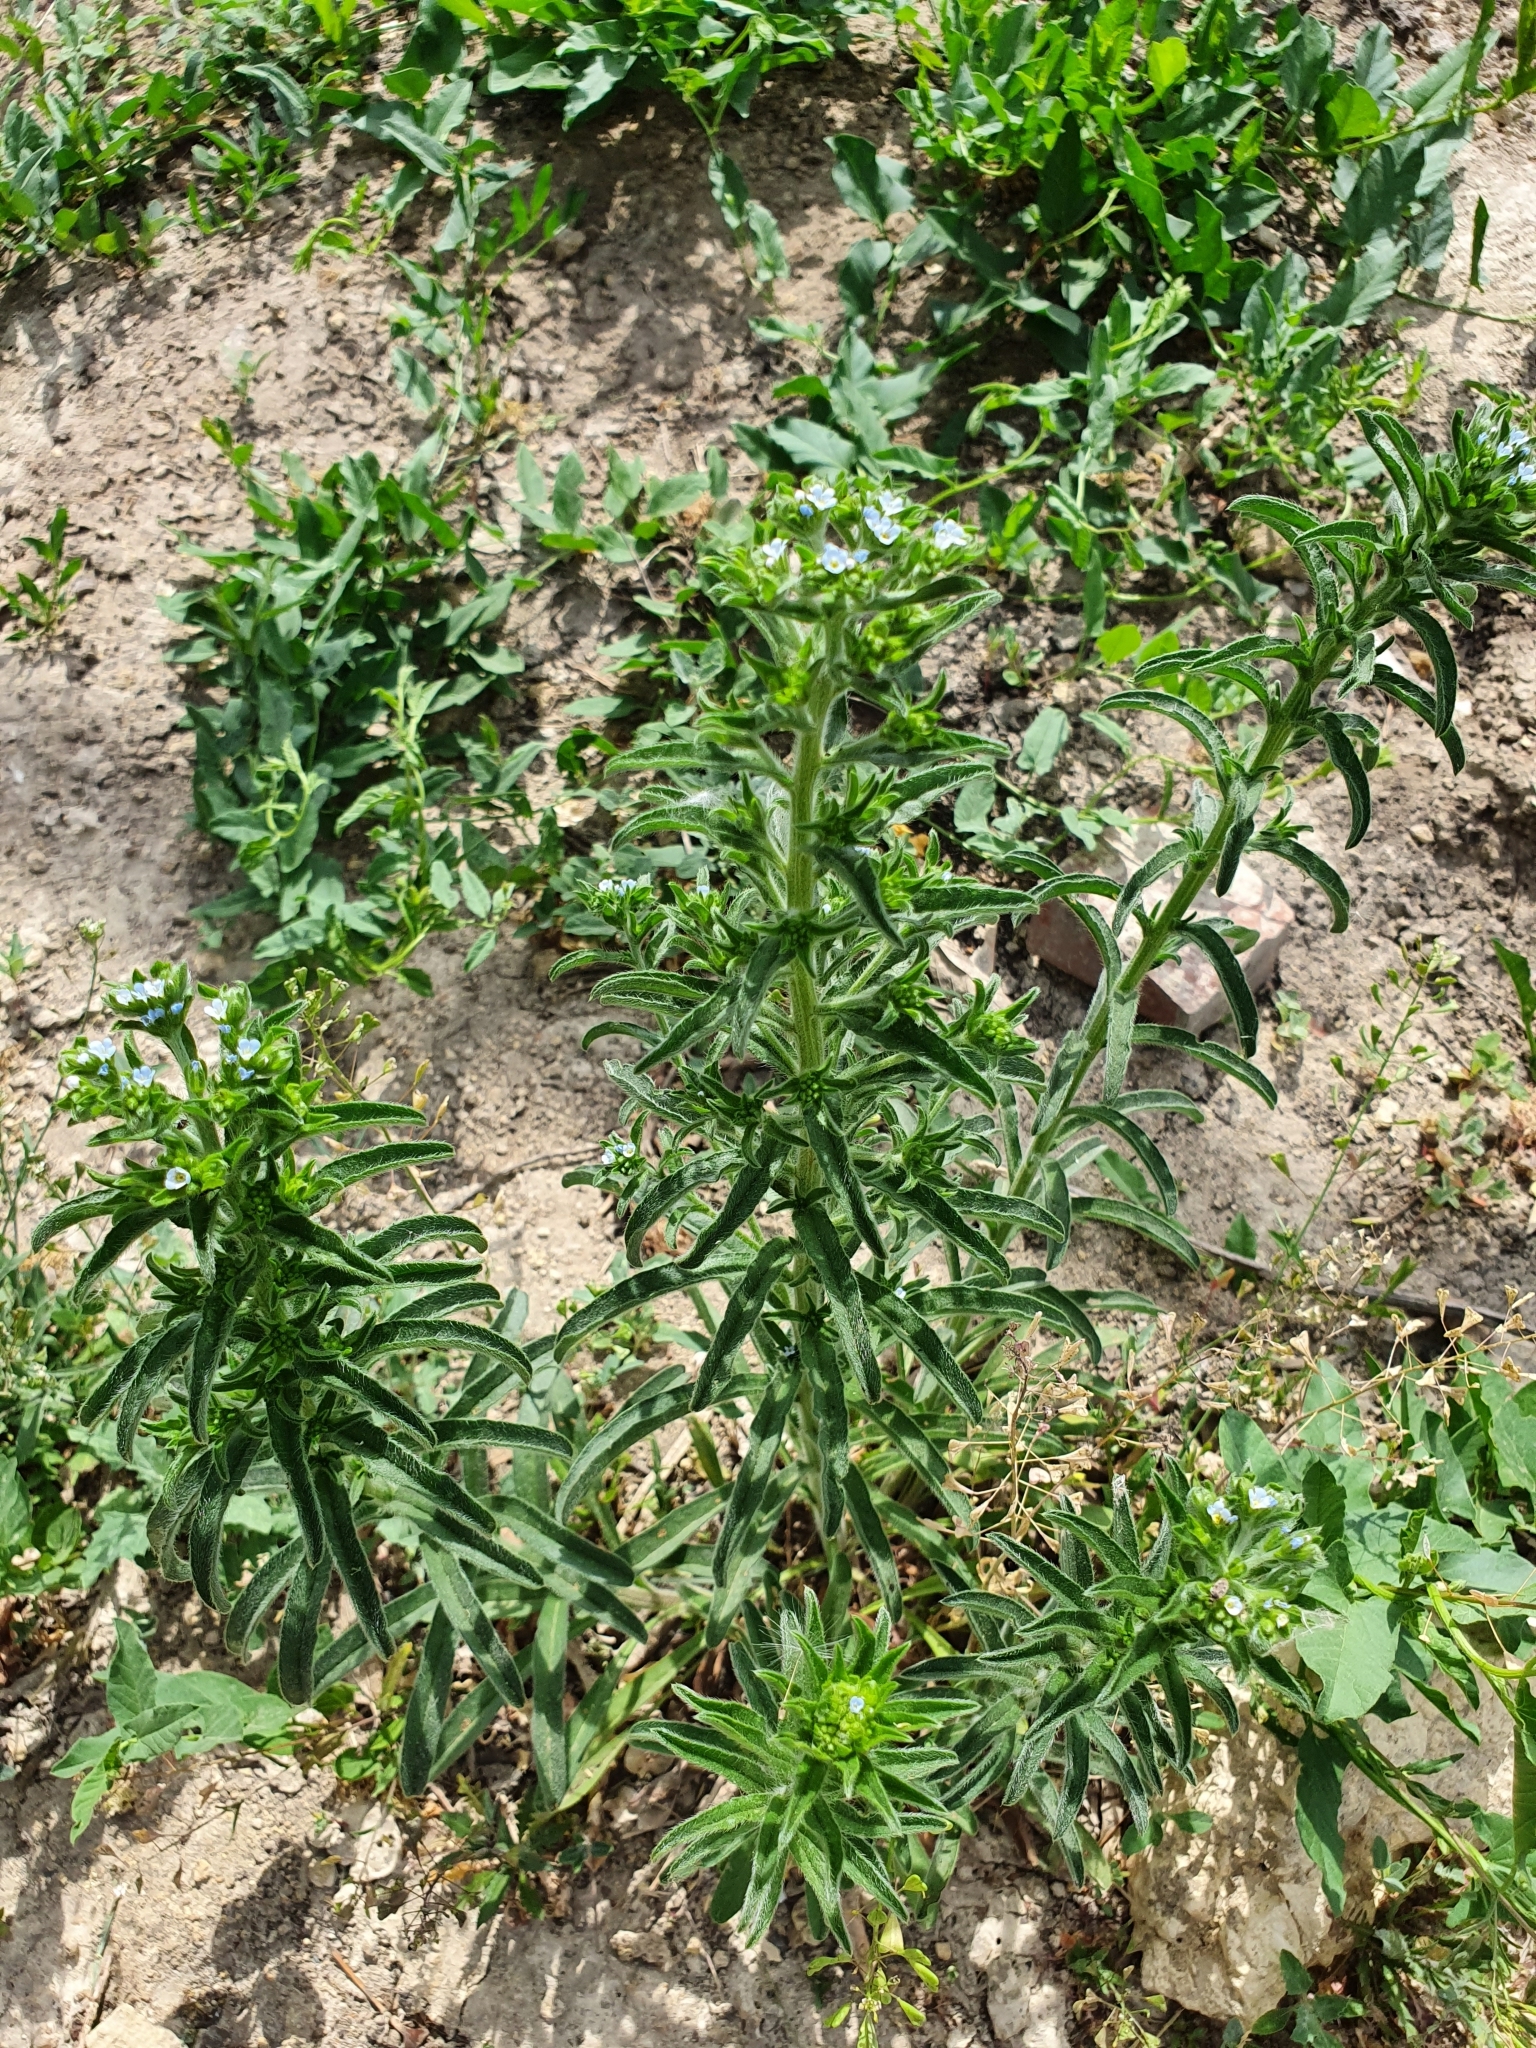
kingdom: Plantae
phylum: Tracheophyta
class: Magnoliopsida
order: Boraginales
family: Boraginaceae
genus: Lappula
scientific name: Lappula squarrosa
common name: European stickseed
